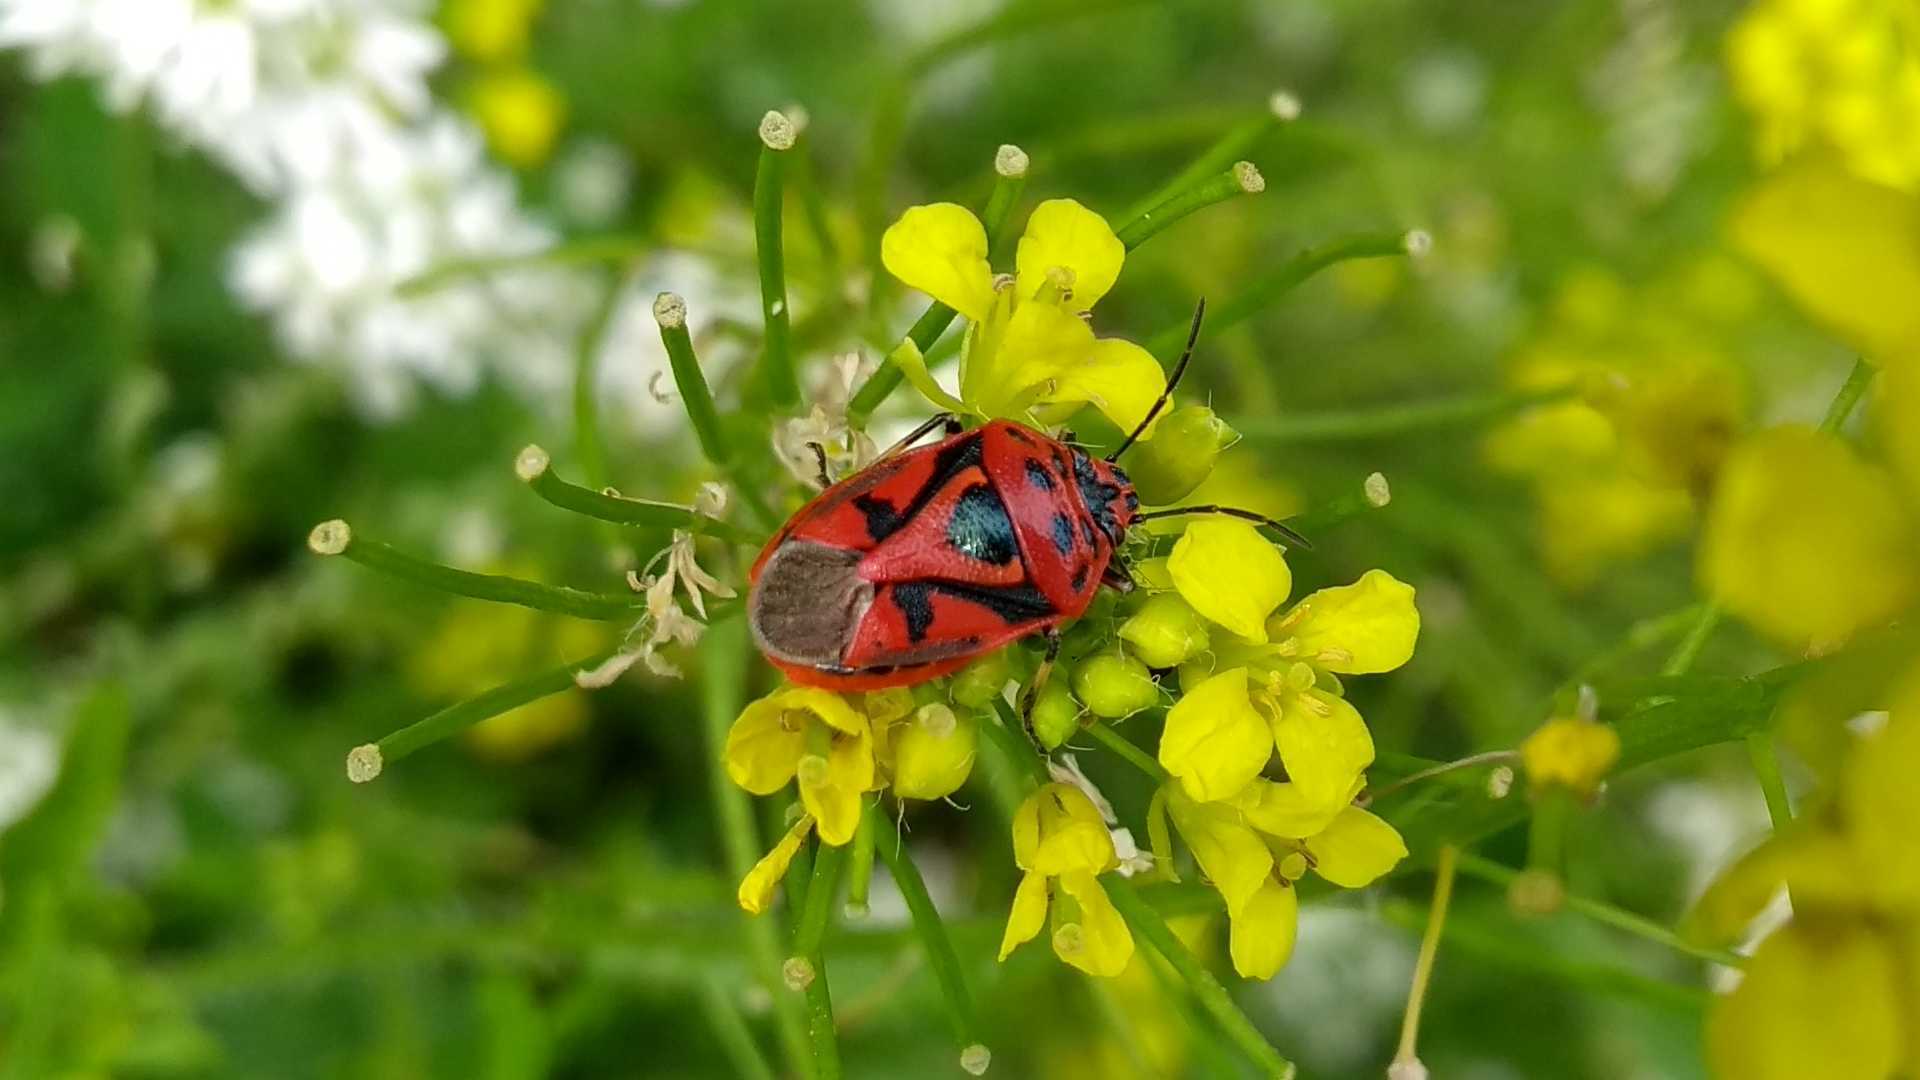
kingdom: Animalia
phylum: Arthropoda
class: Insecta
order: Hemiptera
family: Pentatomidae
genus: Eurydema
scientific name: Eurydema ornata
